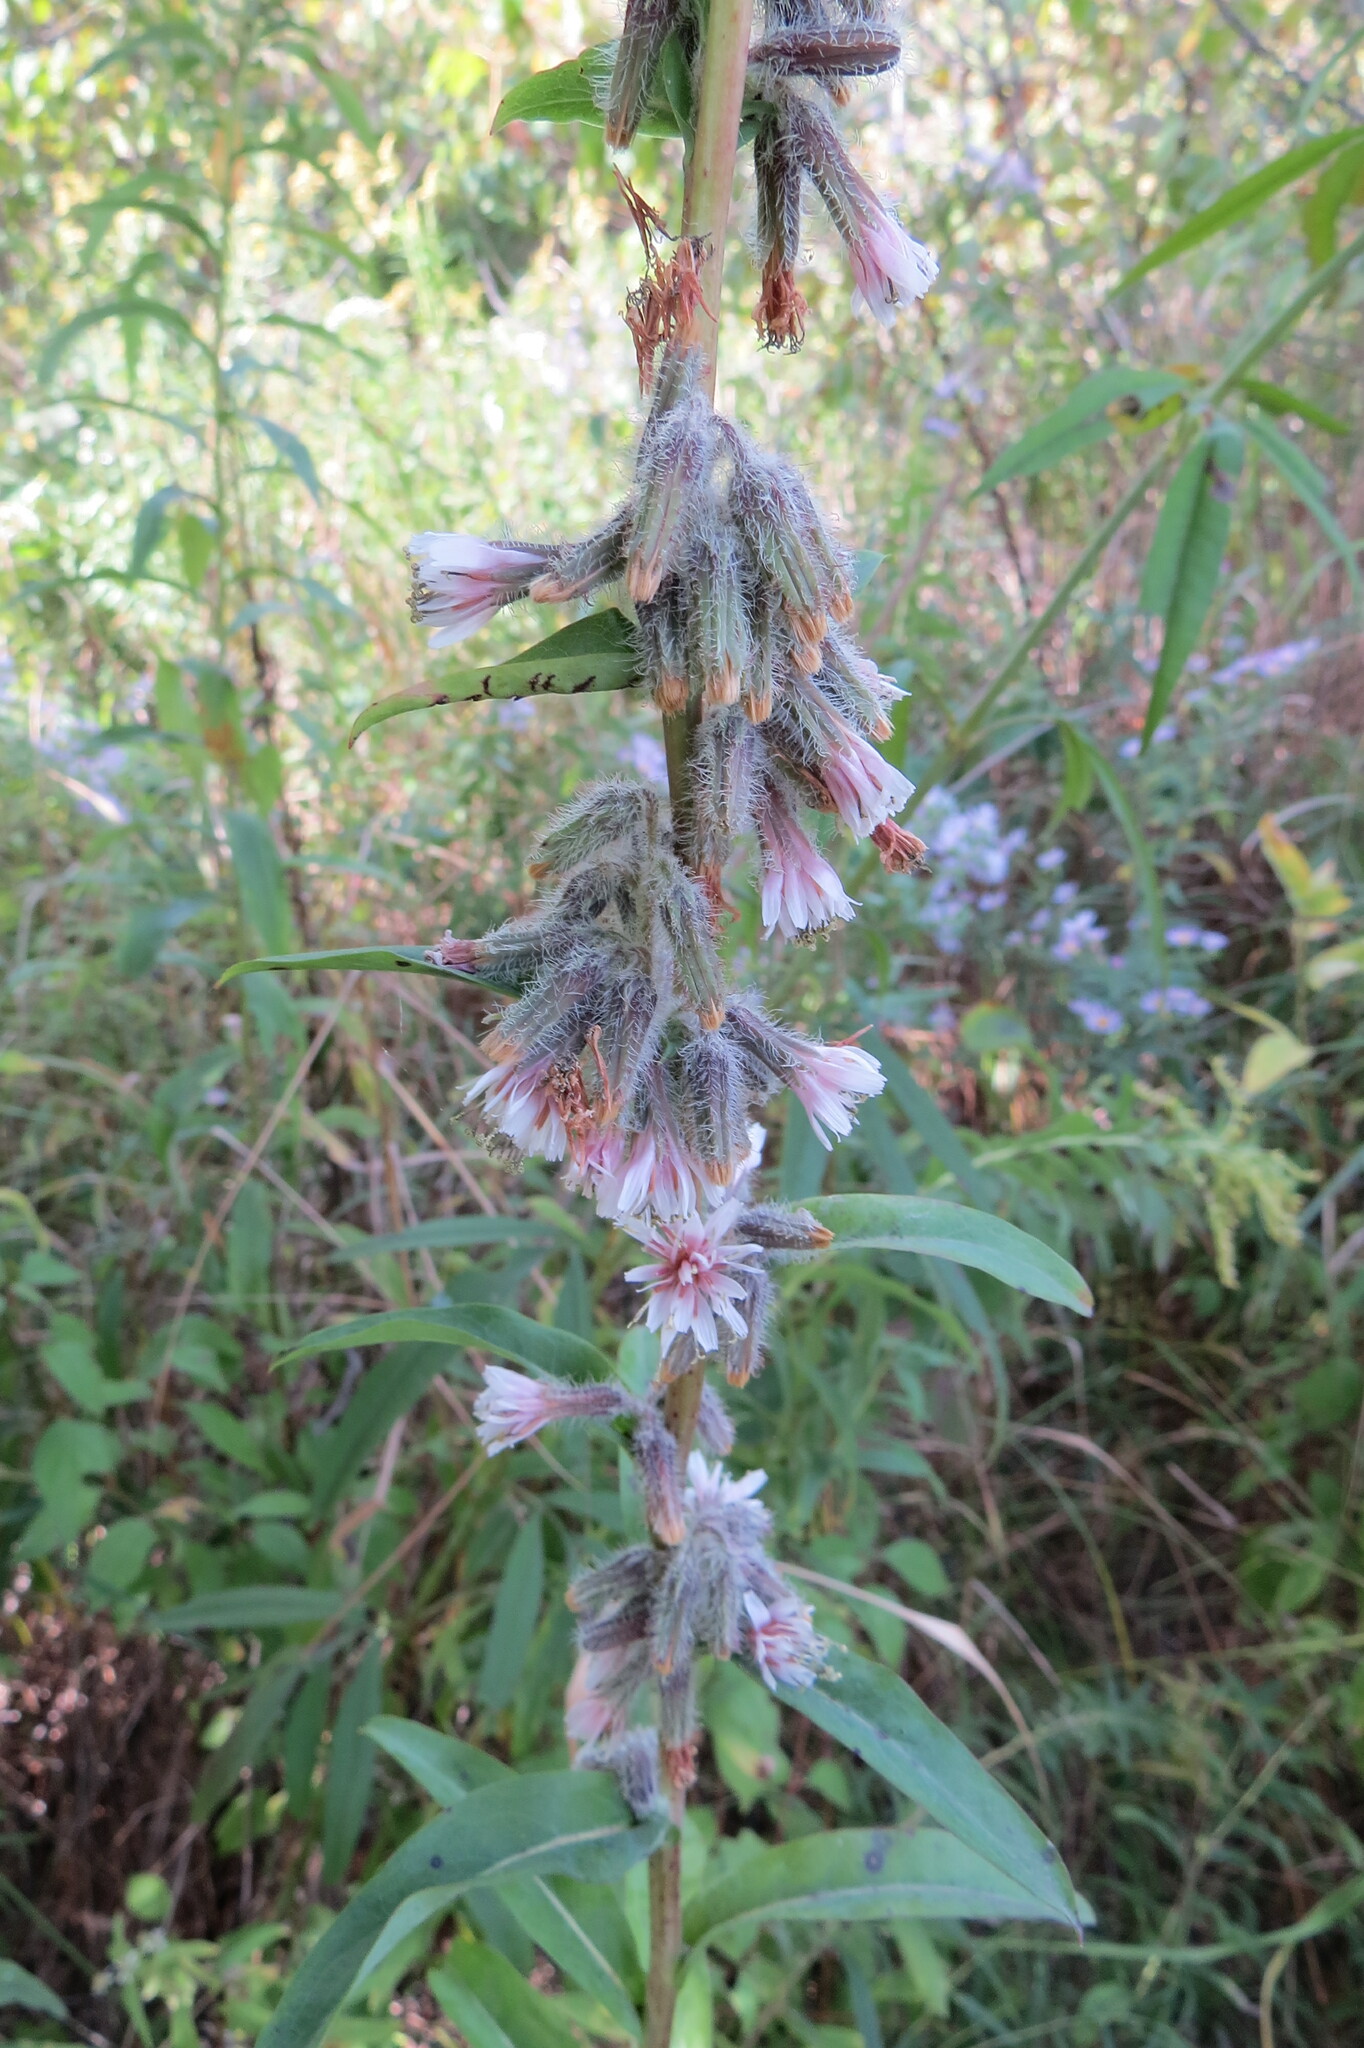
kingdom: Plantae
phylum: Tracheophyta
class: Magnoliopsida
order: Asterales
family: Asteraceae
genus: Nabalus
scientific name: Nabalus racemosus
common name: Glaucous white lettuce
